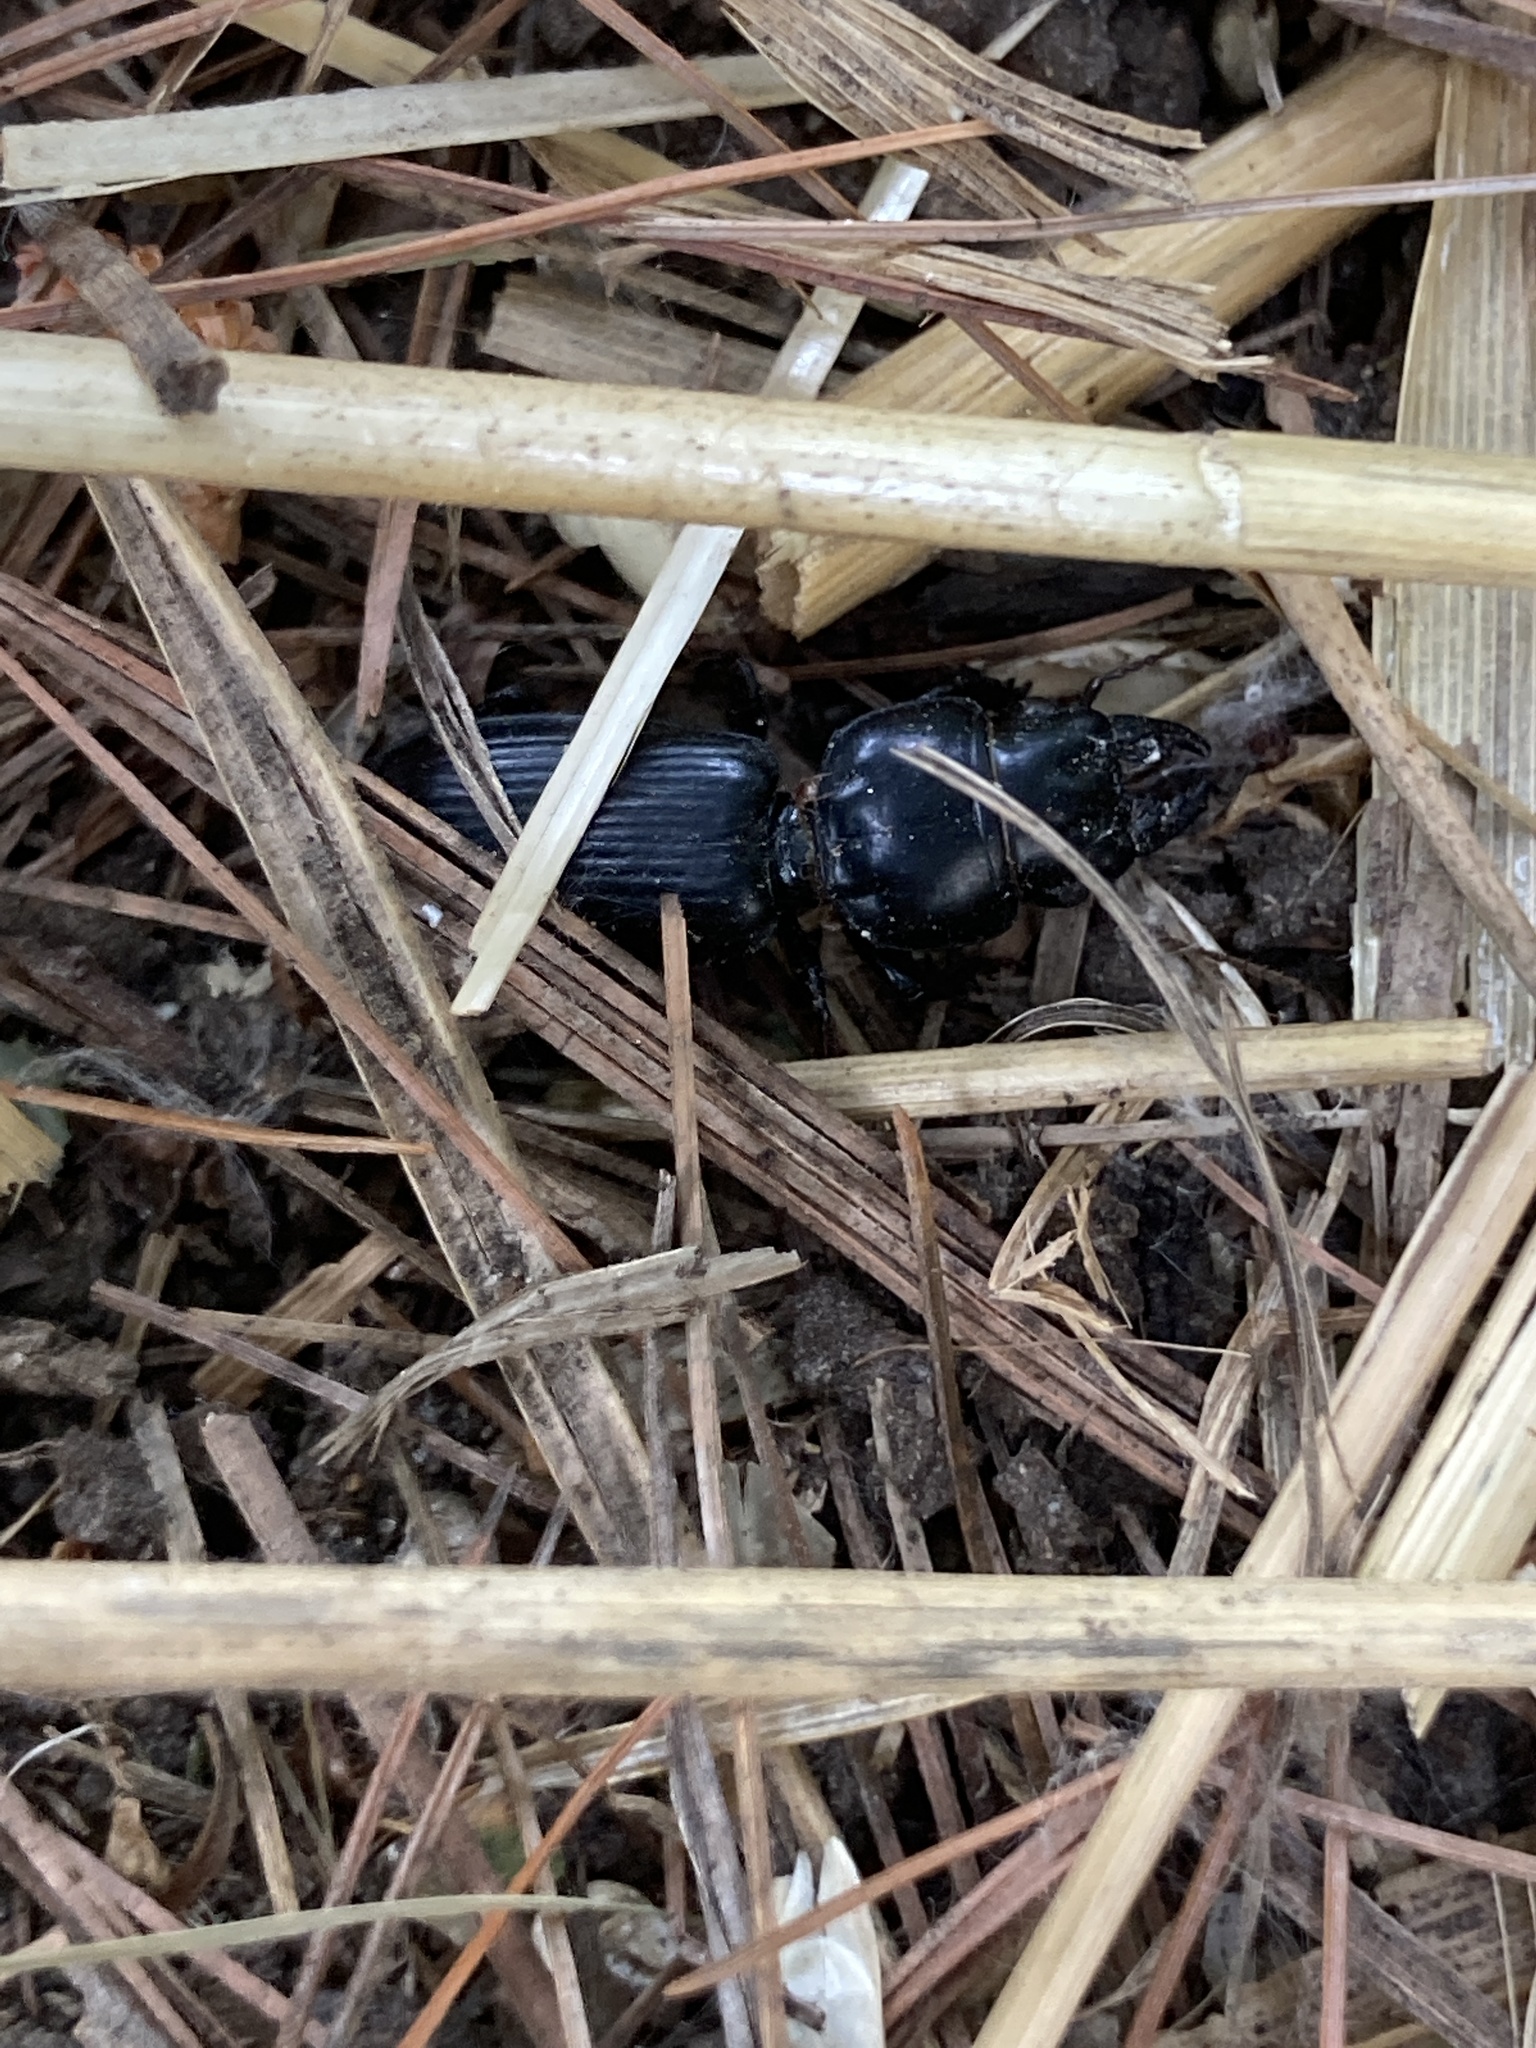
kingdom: Animalia
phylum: Arthropoda
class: Insecta
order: Coleoptera
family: Carabidae
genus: Scarites
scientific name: Scarites subterraneus
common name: Big-headed ground beetle
